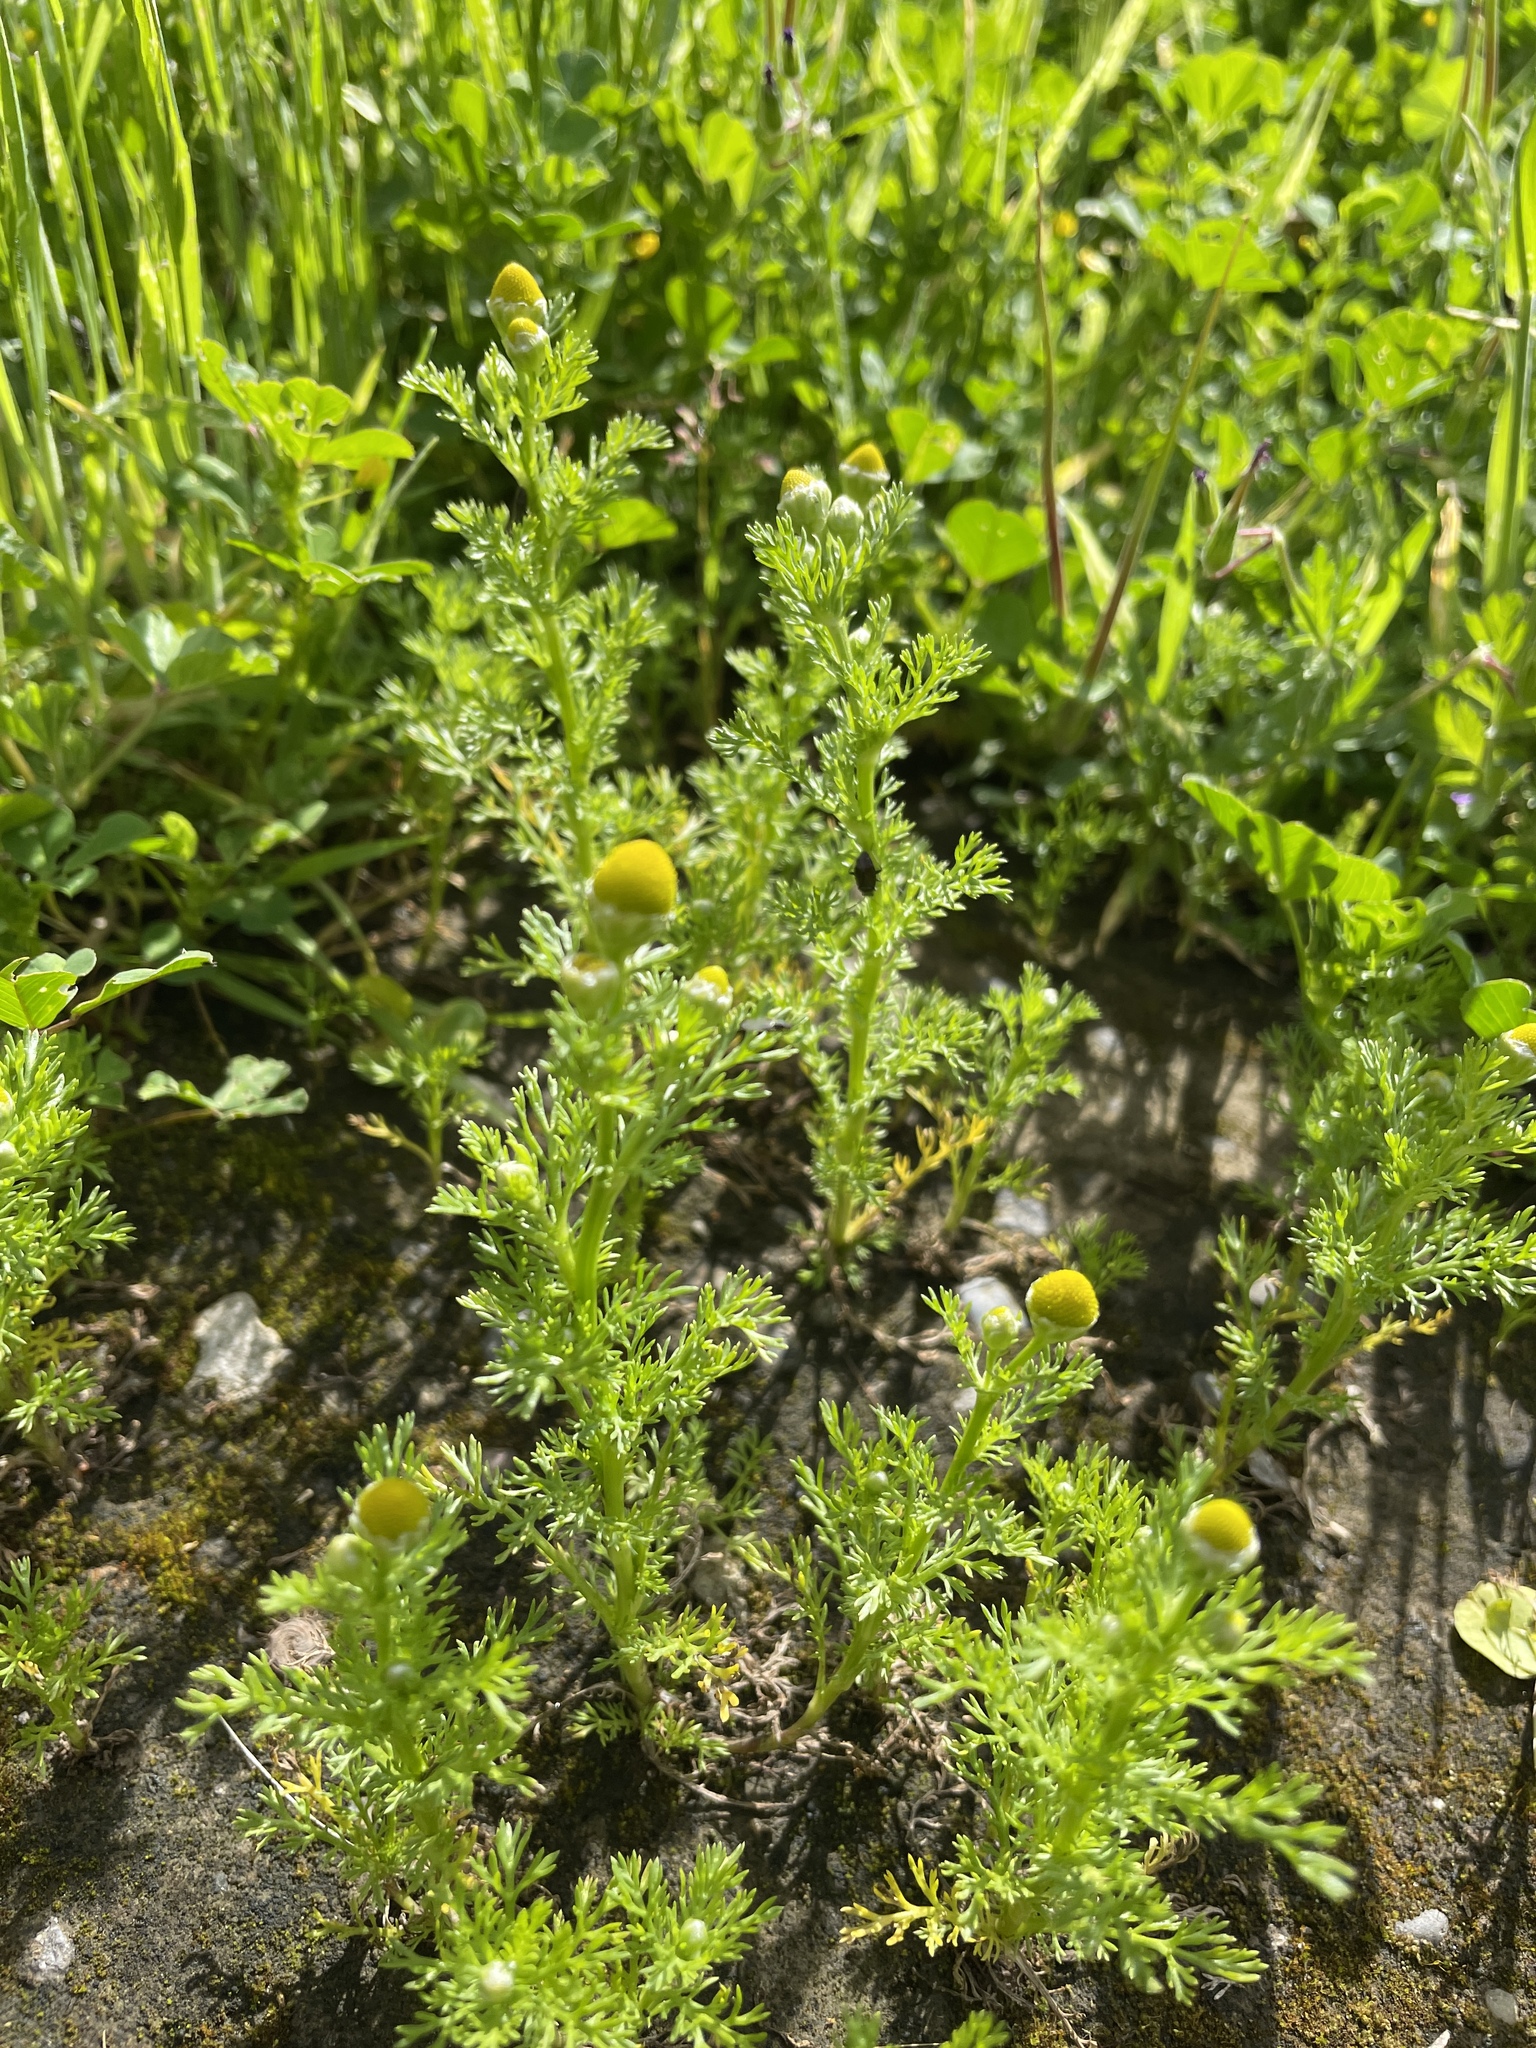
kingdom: Plantae
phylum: Tracheophyta
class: Magnoliopsida
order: Asterales
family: Asteraceae
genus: Matricaria
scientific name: Matricaria discoidea
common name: Disc mayweed
